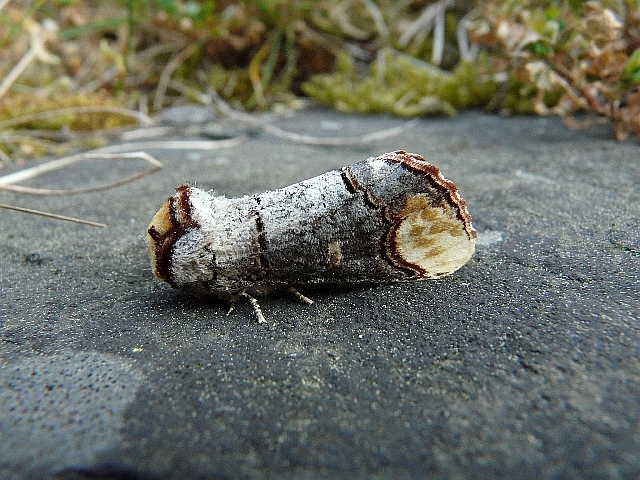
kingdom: Animalia
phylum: Arthropoda
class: Insecta
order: Lepidoptera
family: Notodontidae
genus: Phalera
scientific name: Phalera bucephala
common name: Buff-tip
